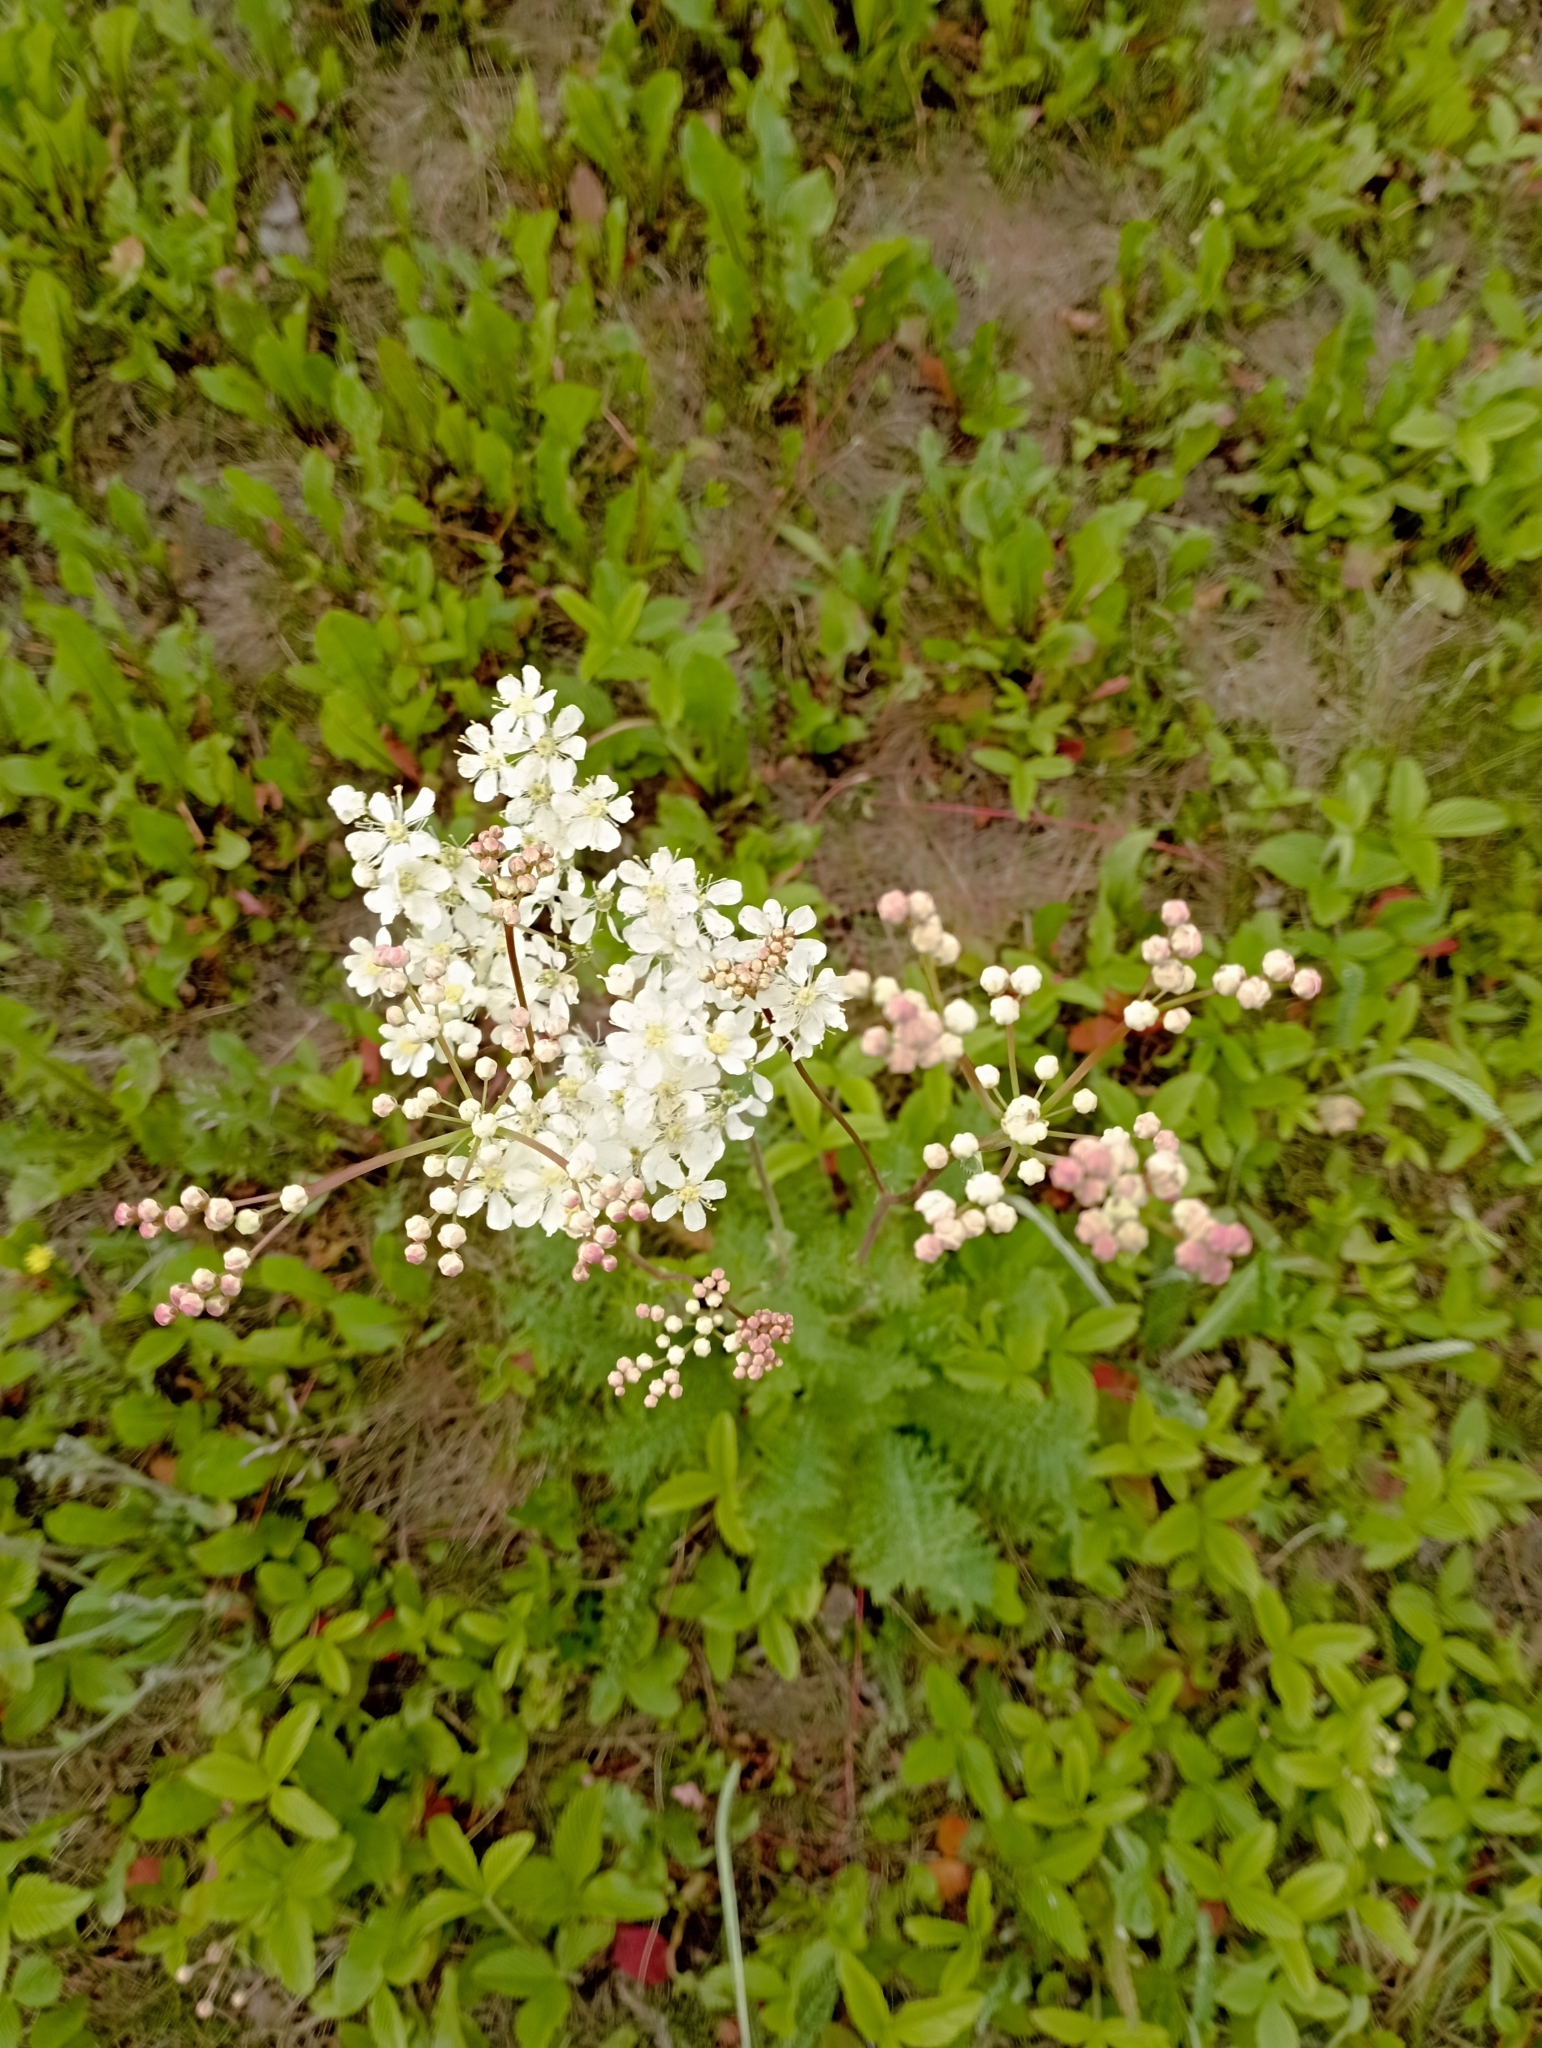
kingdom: Plantae
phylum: Tracheophyta
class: Magnoliopsida
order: Rosales
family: Rosaceae
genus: Filipendula
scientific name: Filipendula vulgaris
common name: Dropwort
